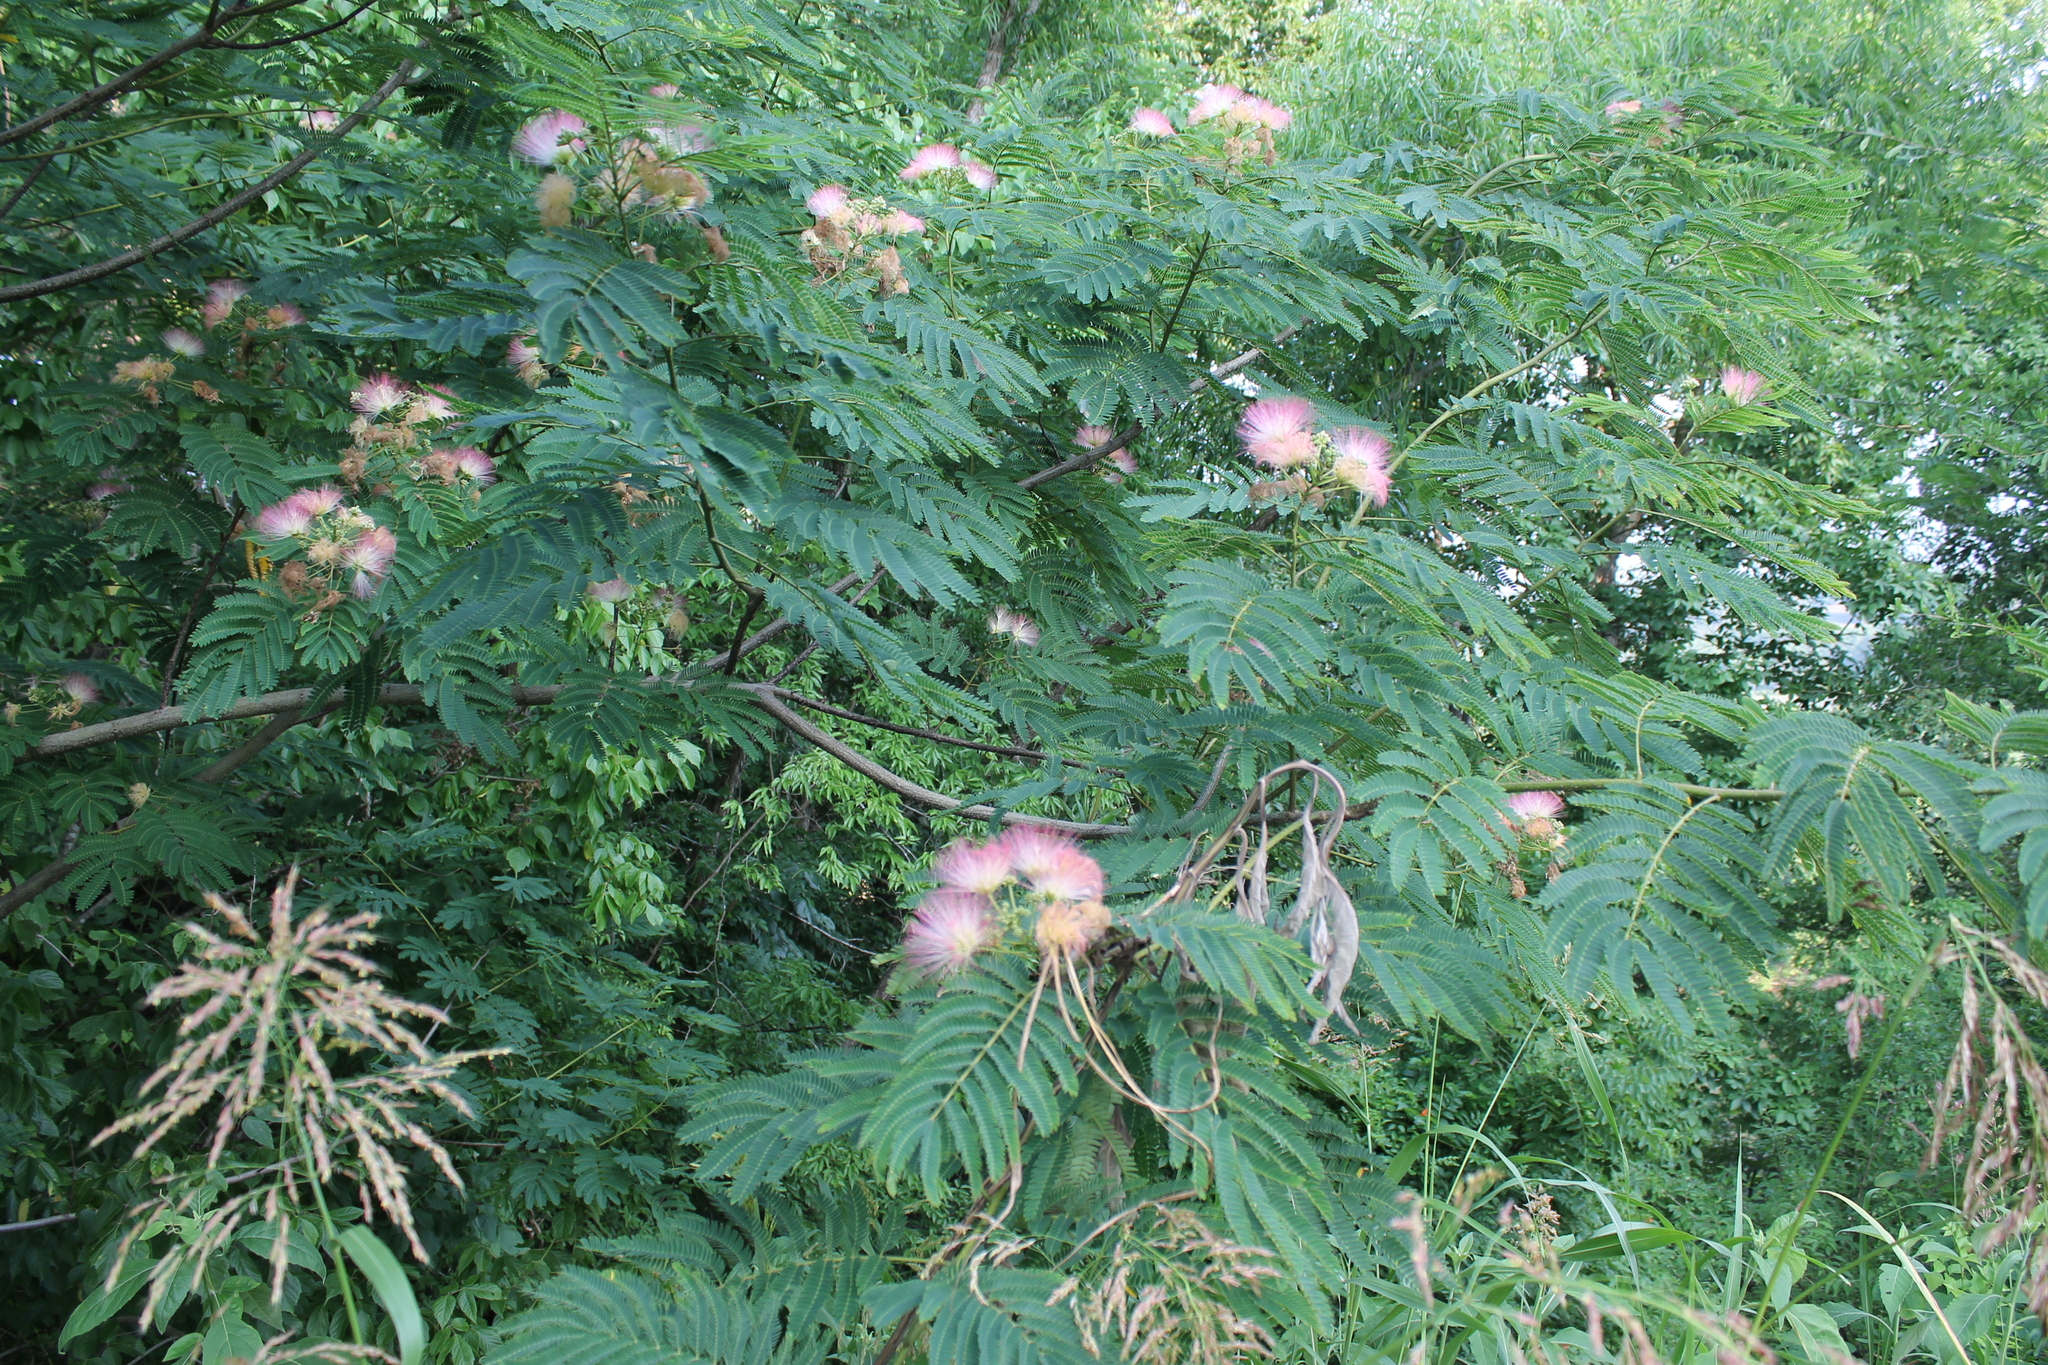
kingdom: Plantae
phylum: Tracheophyta
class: Magnoliopsida
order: Fabales
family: Fabaceae
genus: Albizia
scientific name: Albizia julibrissin
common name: Silktree
